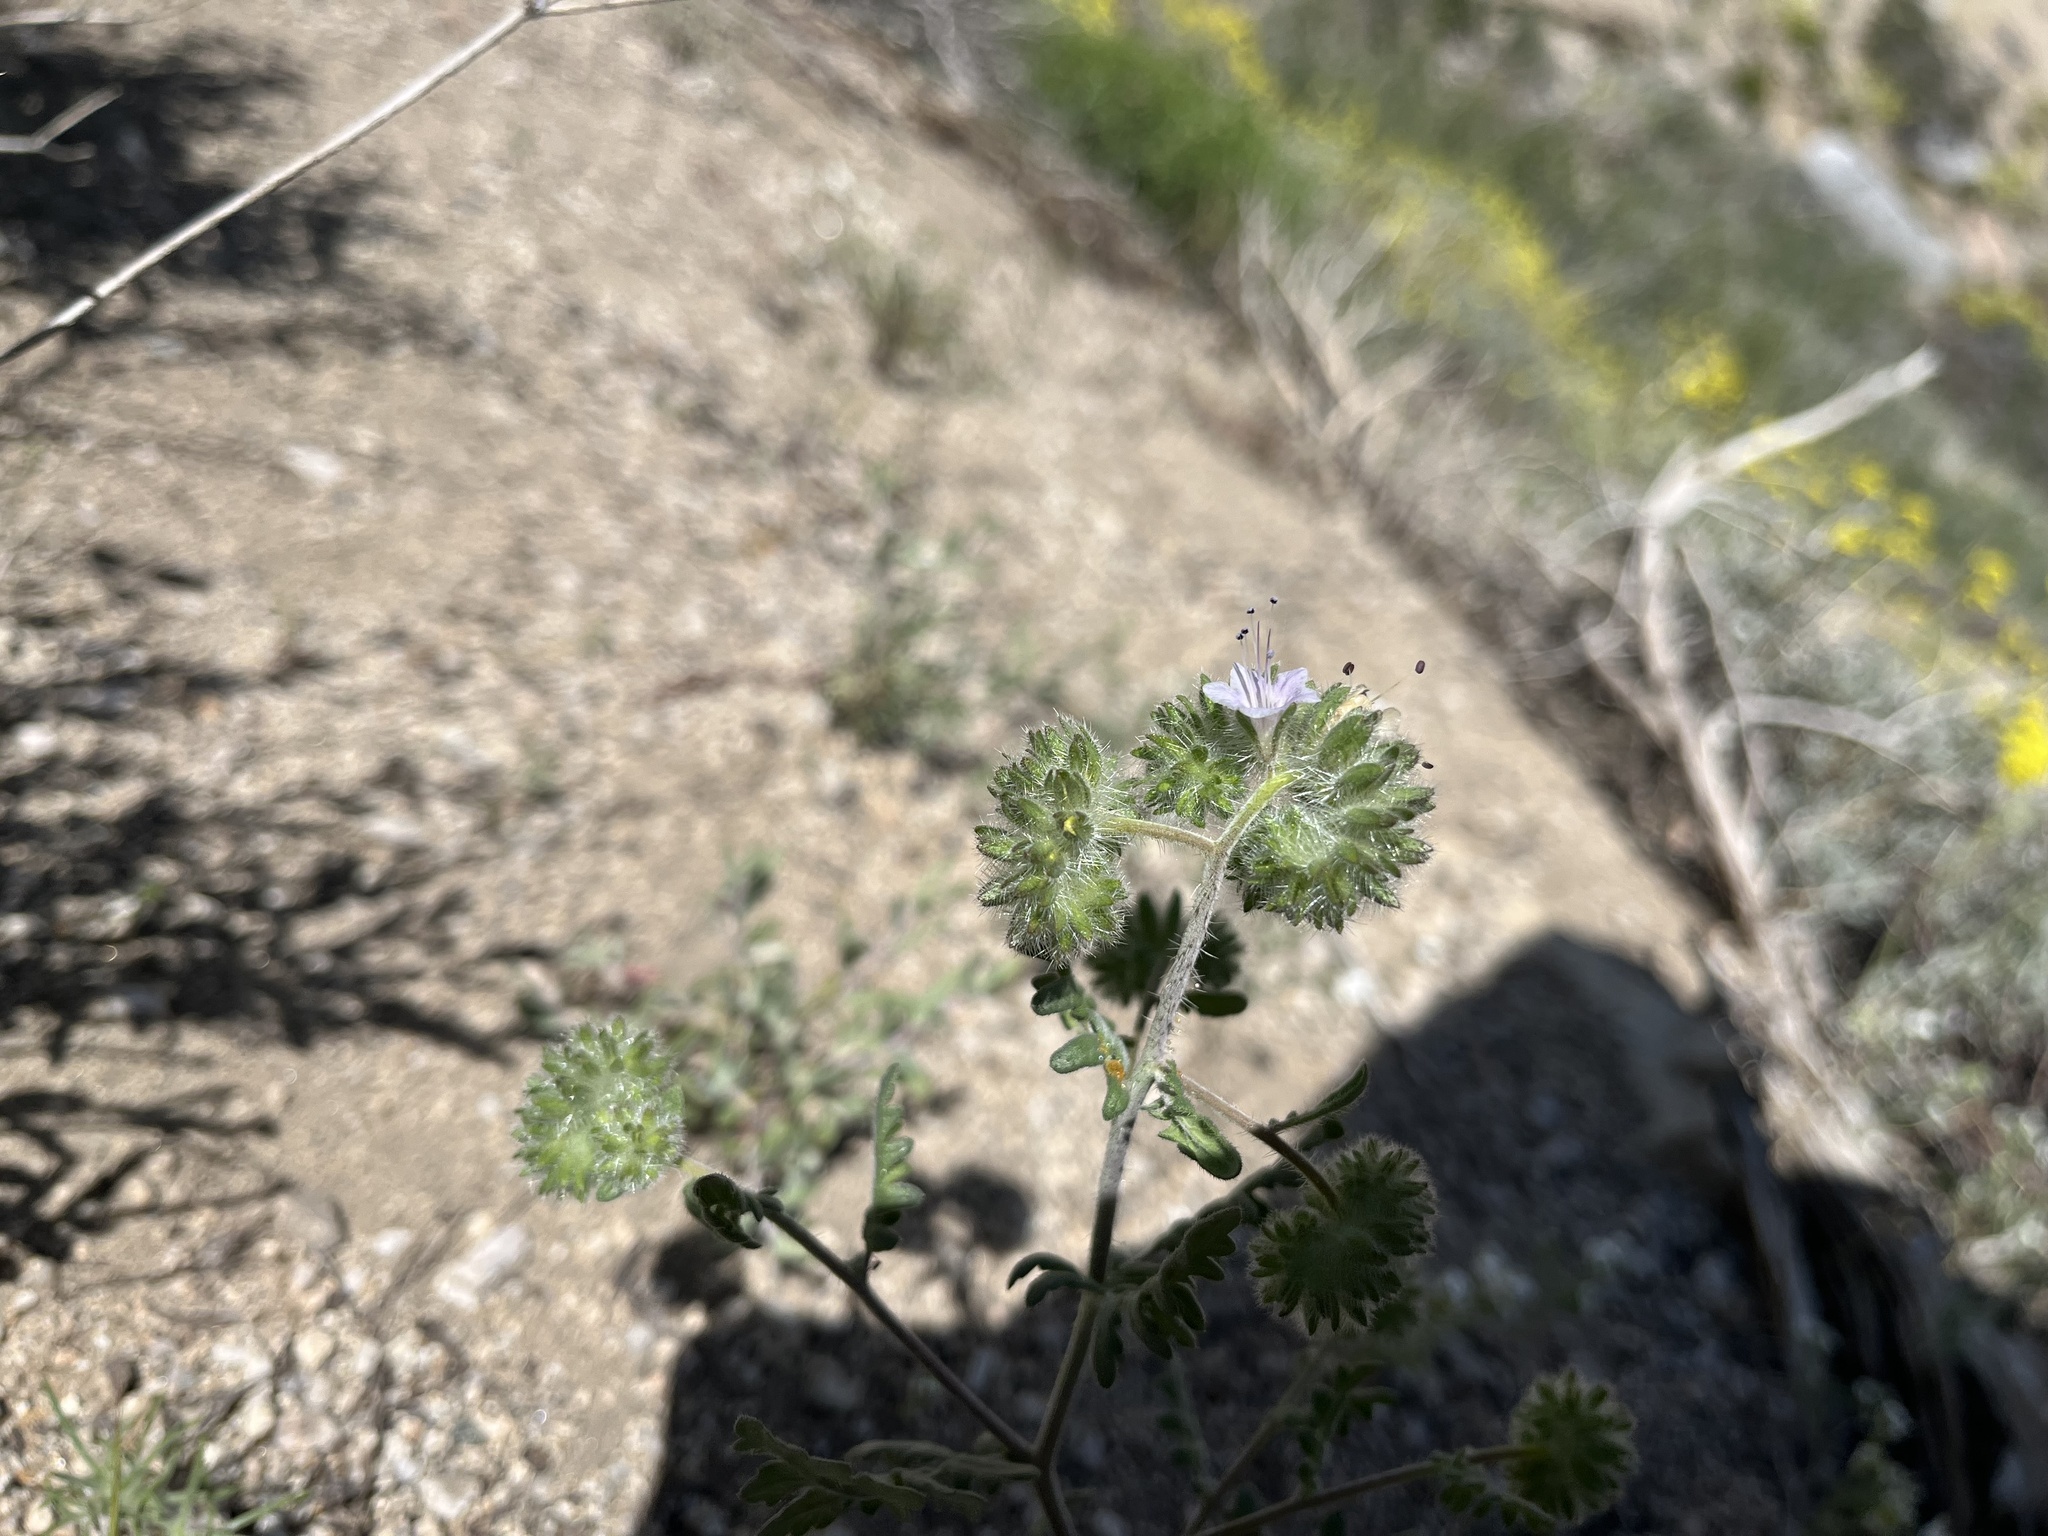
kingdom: Plantae
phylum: Tracheophyta
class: Magnoliopsida
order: Boraginales
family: Hydrophyllaceae
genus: Phacelia
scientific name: Phacelia ramosissima
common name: Branching phacelia
